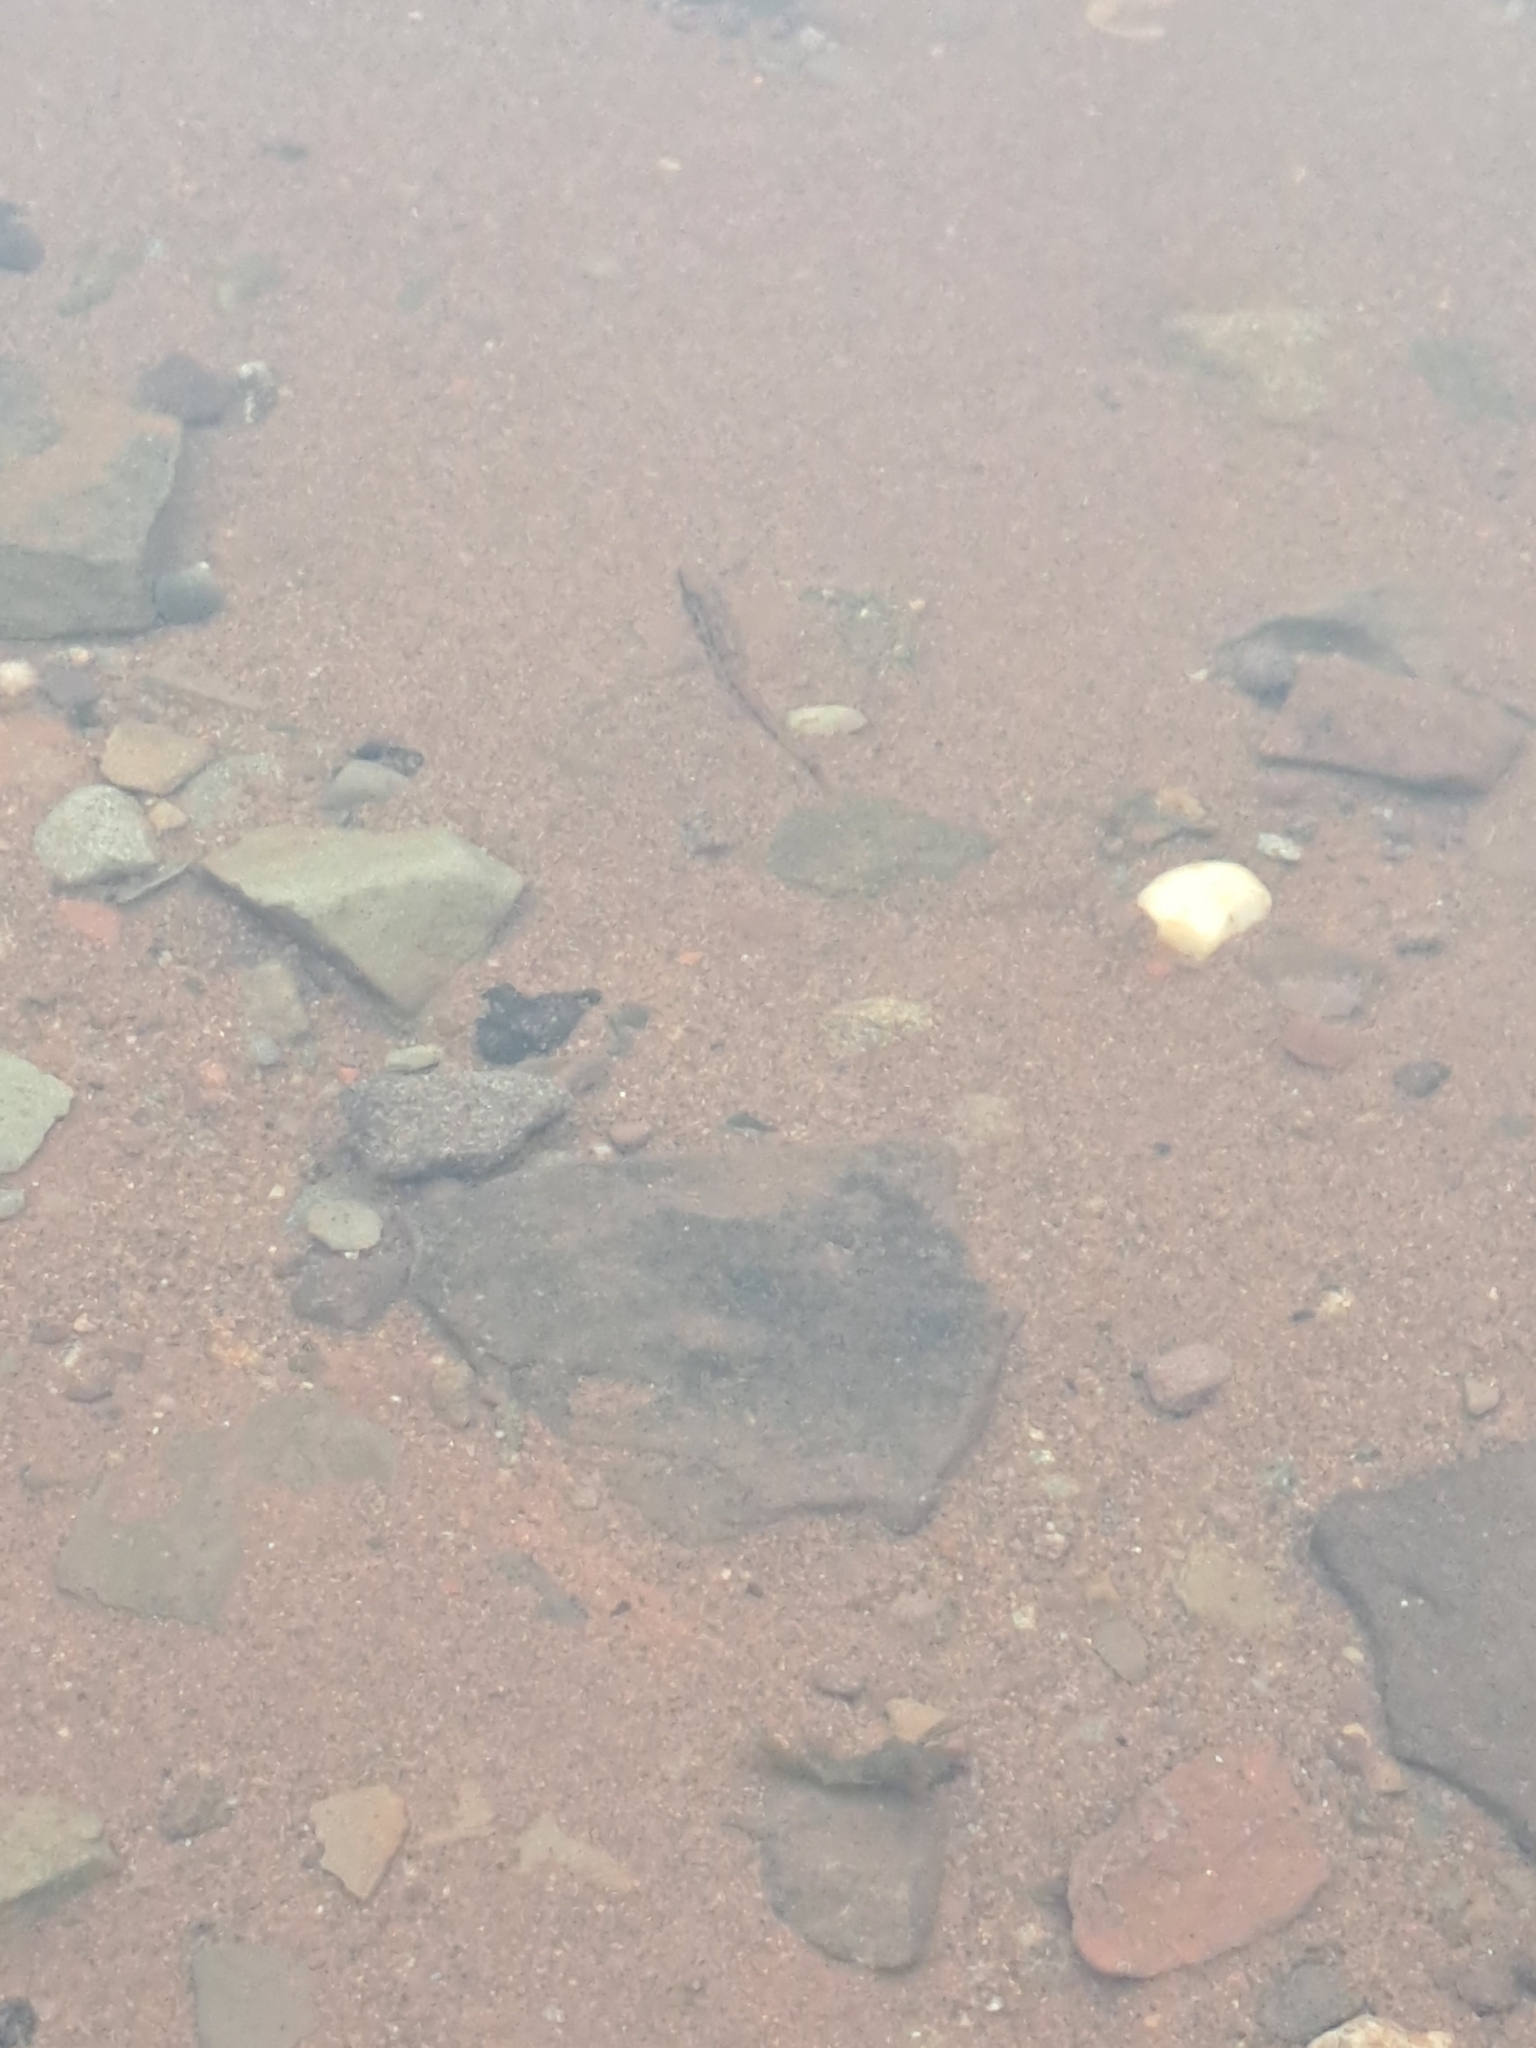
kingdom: Animalia
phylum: Chordata
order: Gasterosteiformes
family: Gasterosteidae
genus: Apeltes
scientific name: Apeltes quadracus
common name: Fourspine stickleback
